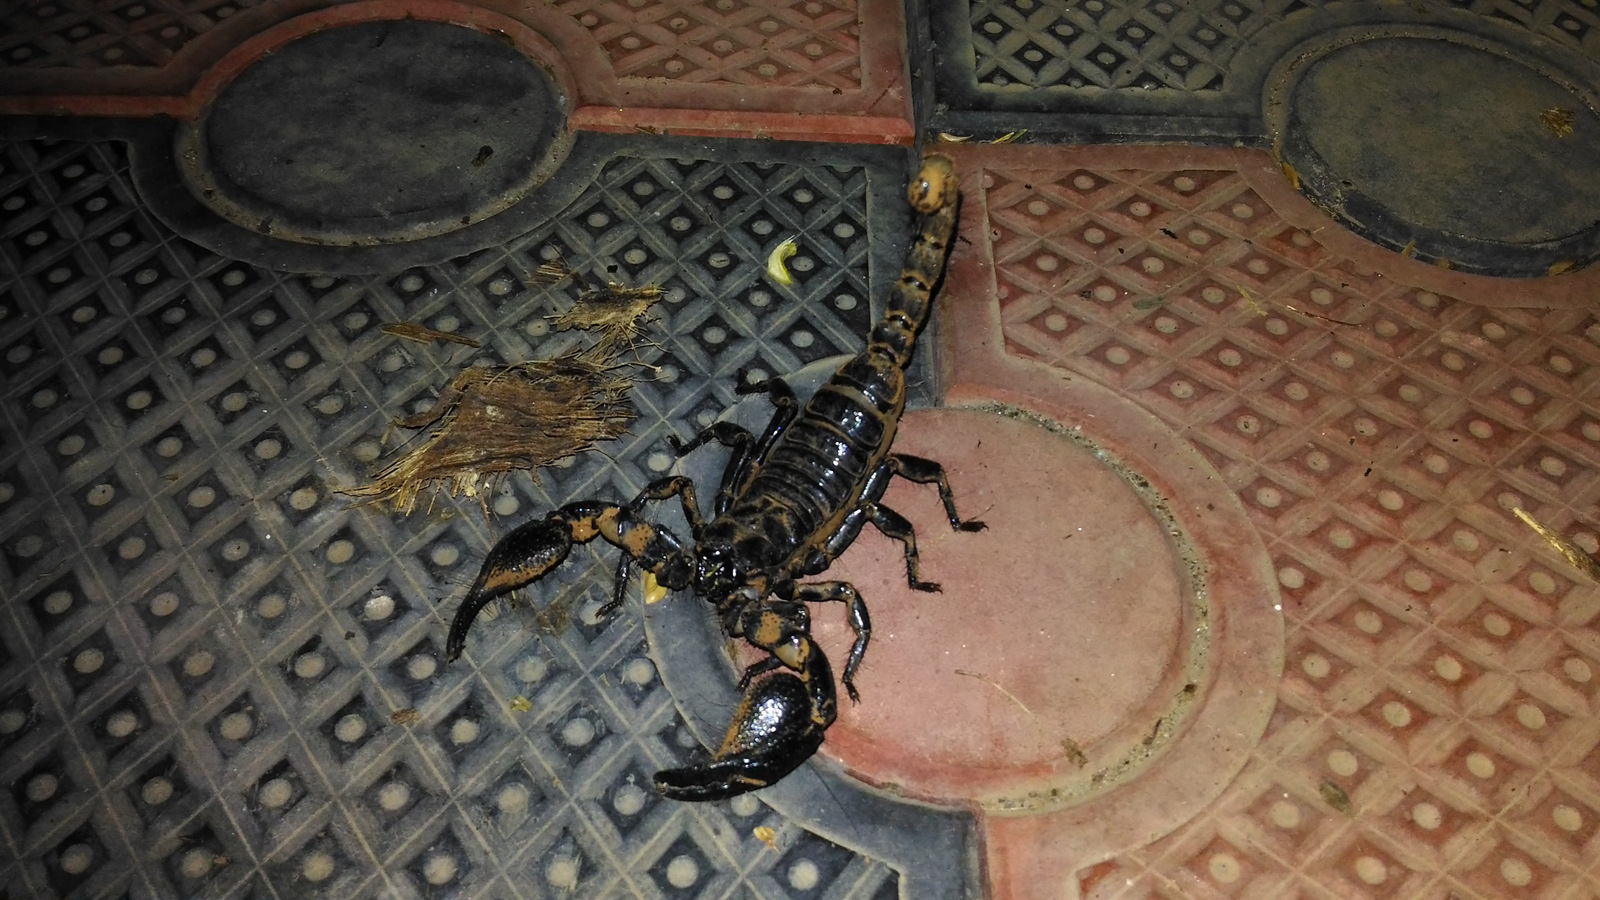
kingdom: Animalia
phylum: Arthropoda
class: Arachnida
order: Scorpiones
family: Scorpionidae
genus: Sahyadrimetrus
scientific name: Sahyadrimetrus scaber
